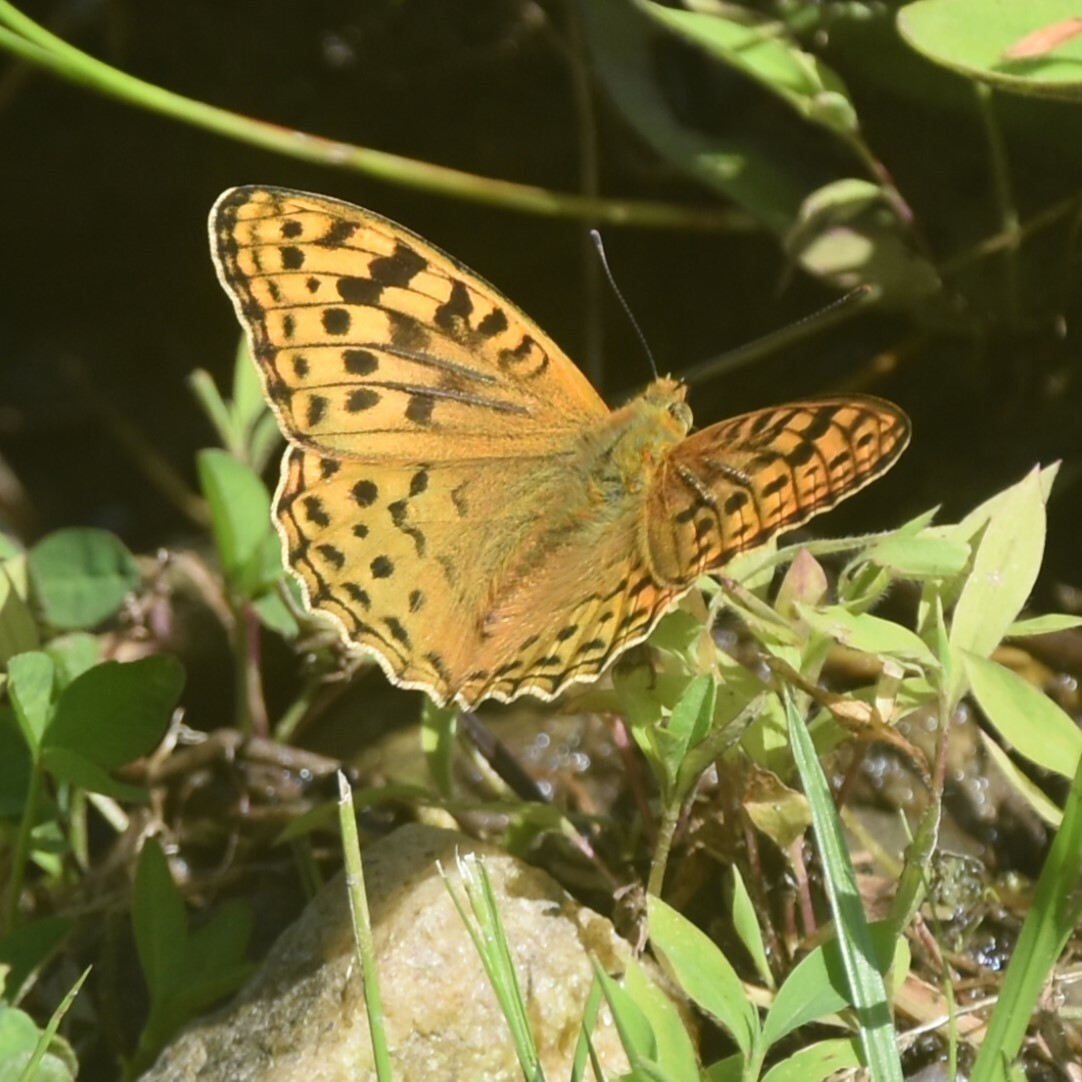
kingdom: Animalia
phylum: Arthropoda
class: Insecta
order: Lepidoptera
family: Nymphalidae
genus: Fabriciana
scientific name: Fabriciana kamala
